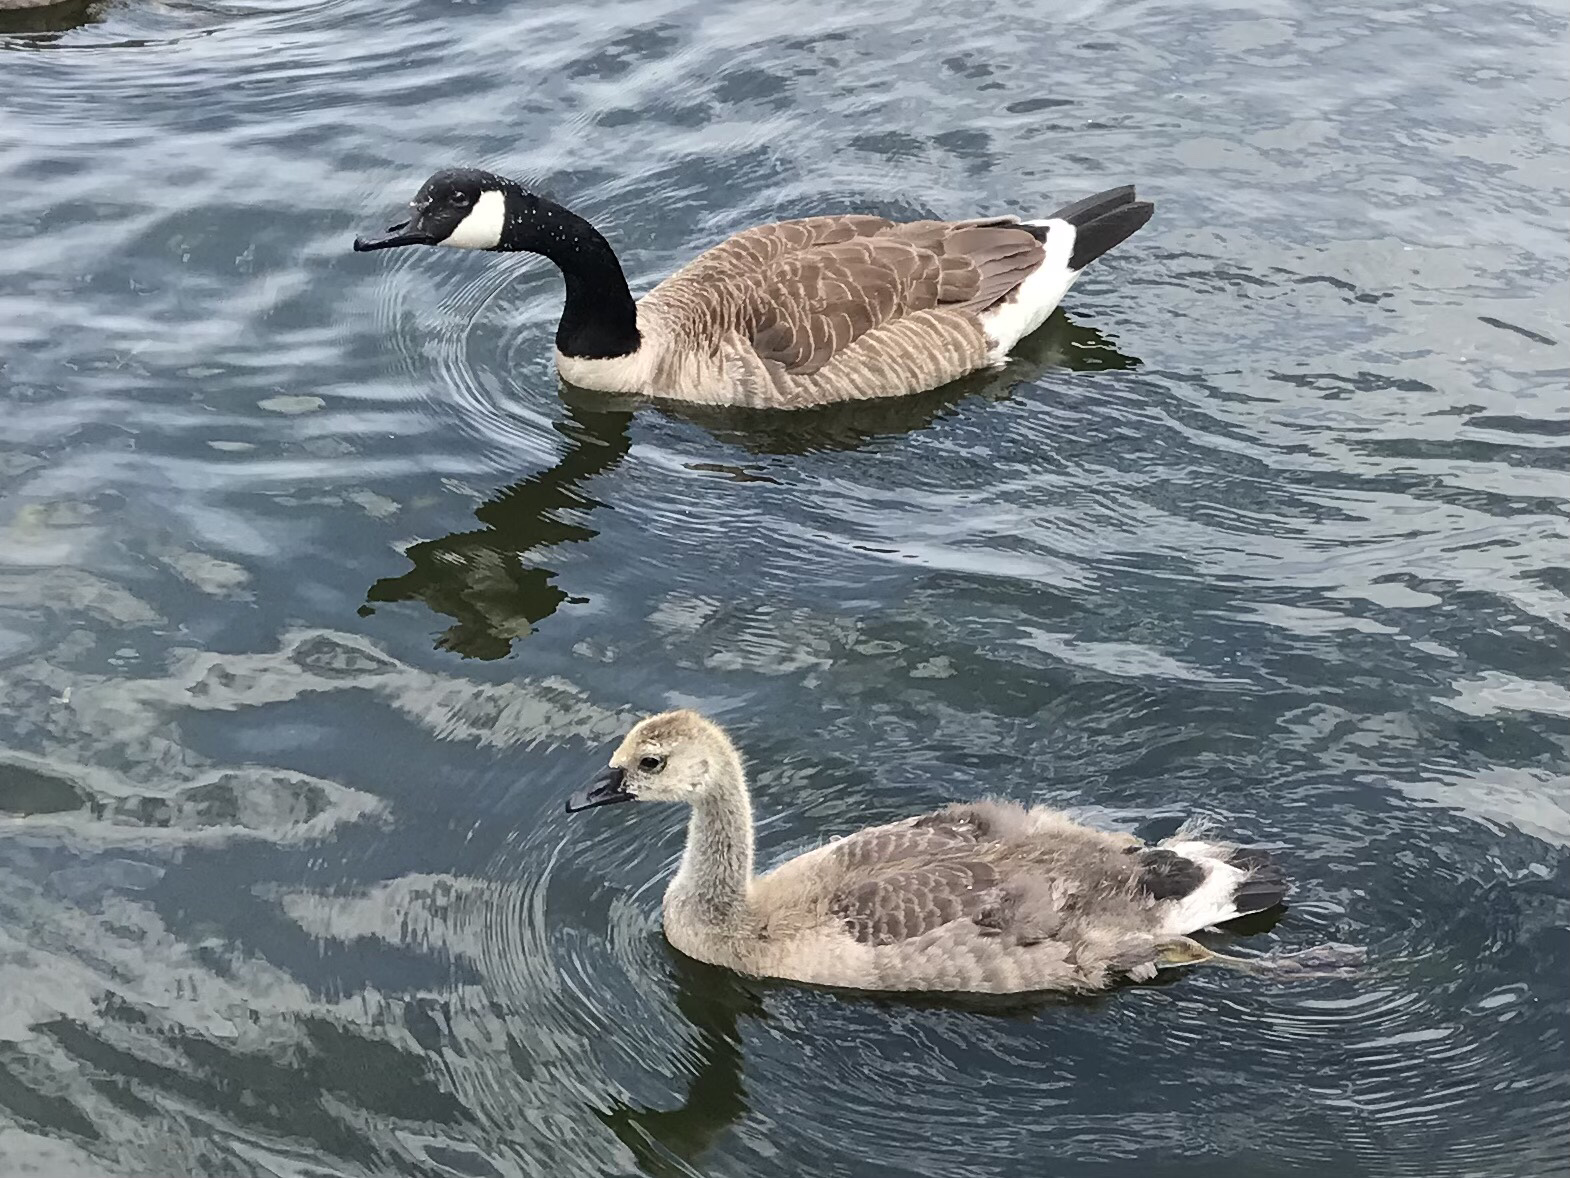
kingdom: Animalia
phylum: Chordata
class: Aves
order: Anseriformes
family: Anatidae
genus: Branta
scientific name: Branta canadensis
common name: Canada goose
